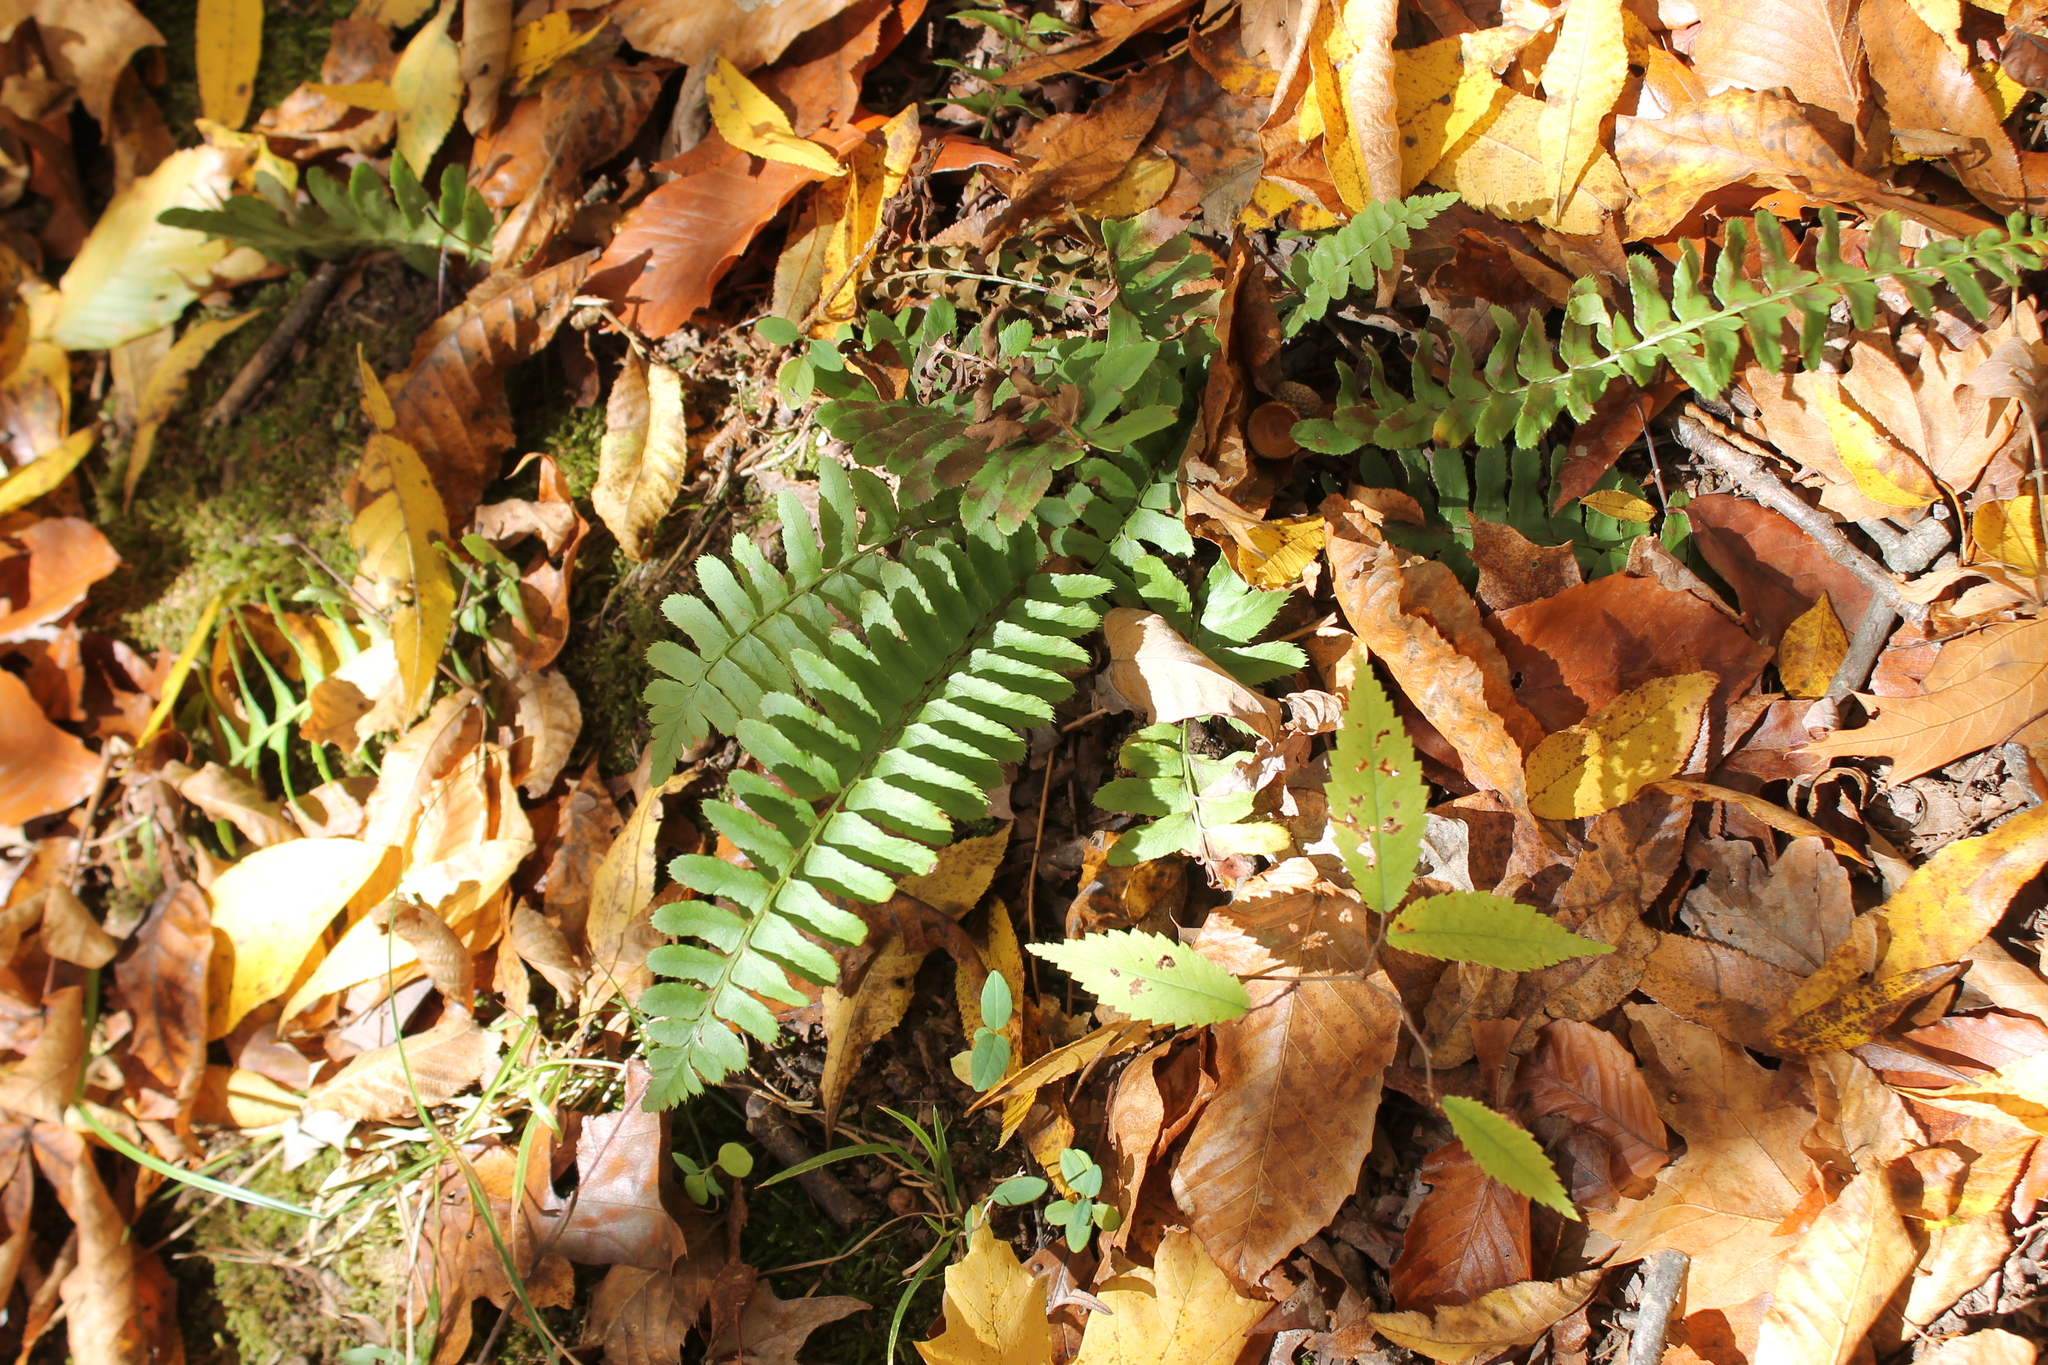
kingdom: Plantae
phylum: Tracheophyta
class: Polypodiopsida
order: Polypodiales
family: Dryopteridaceae
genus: Polystichum
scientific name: Polystichum acrostichoides
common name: Christmas fern
